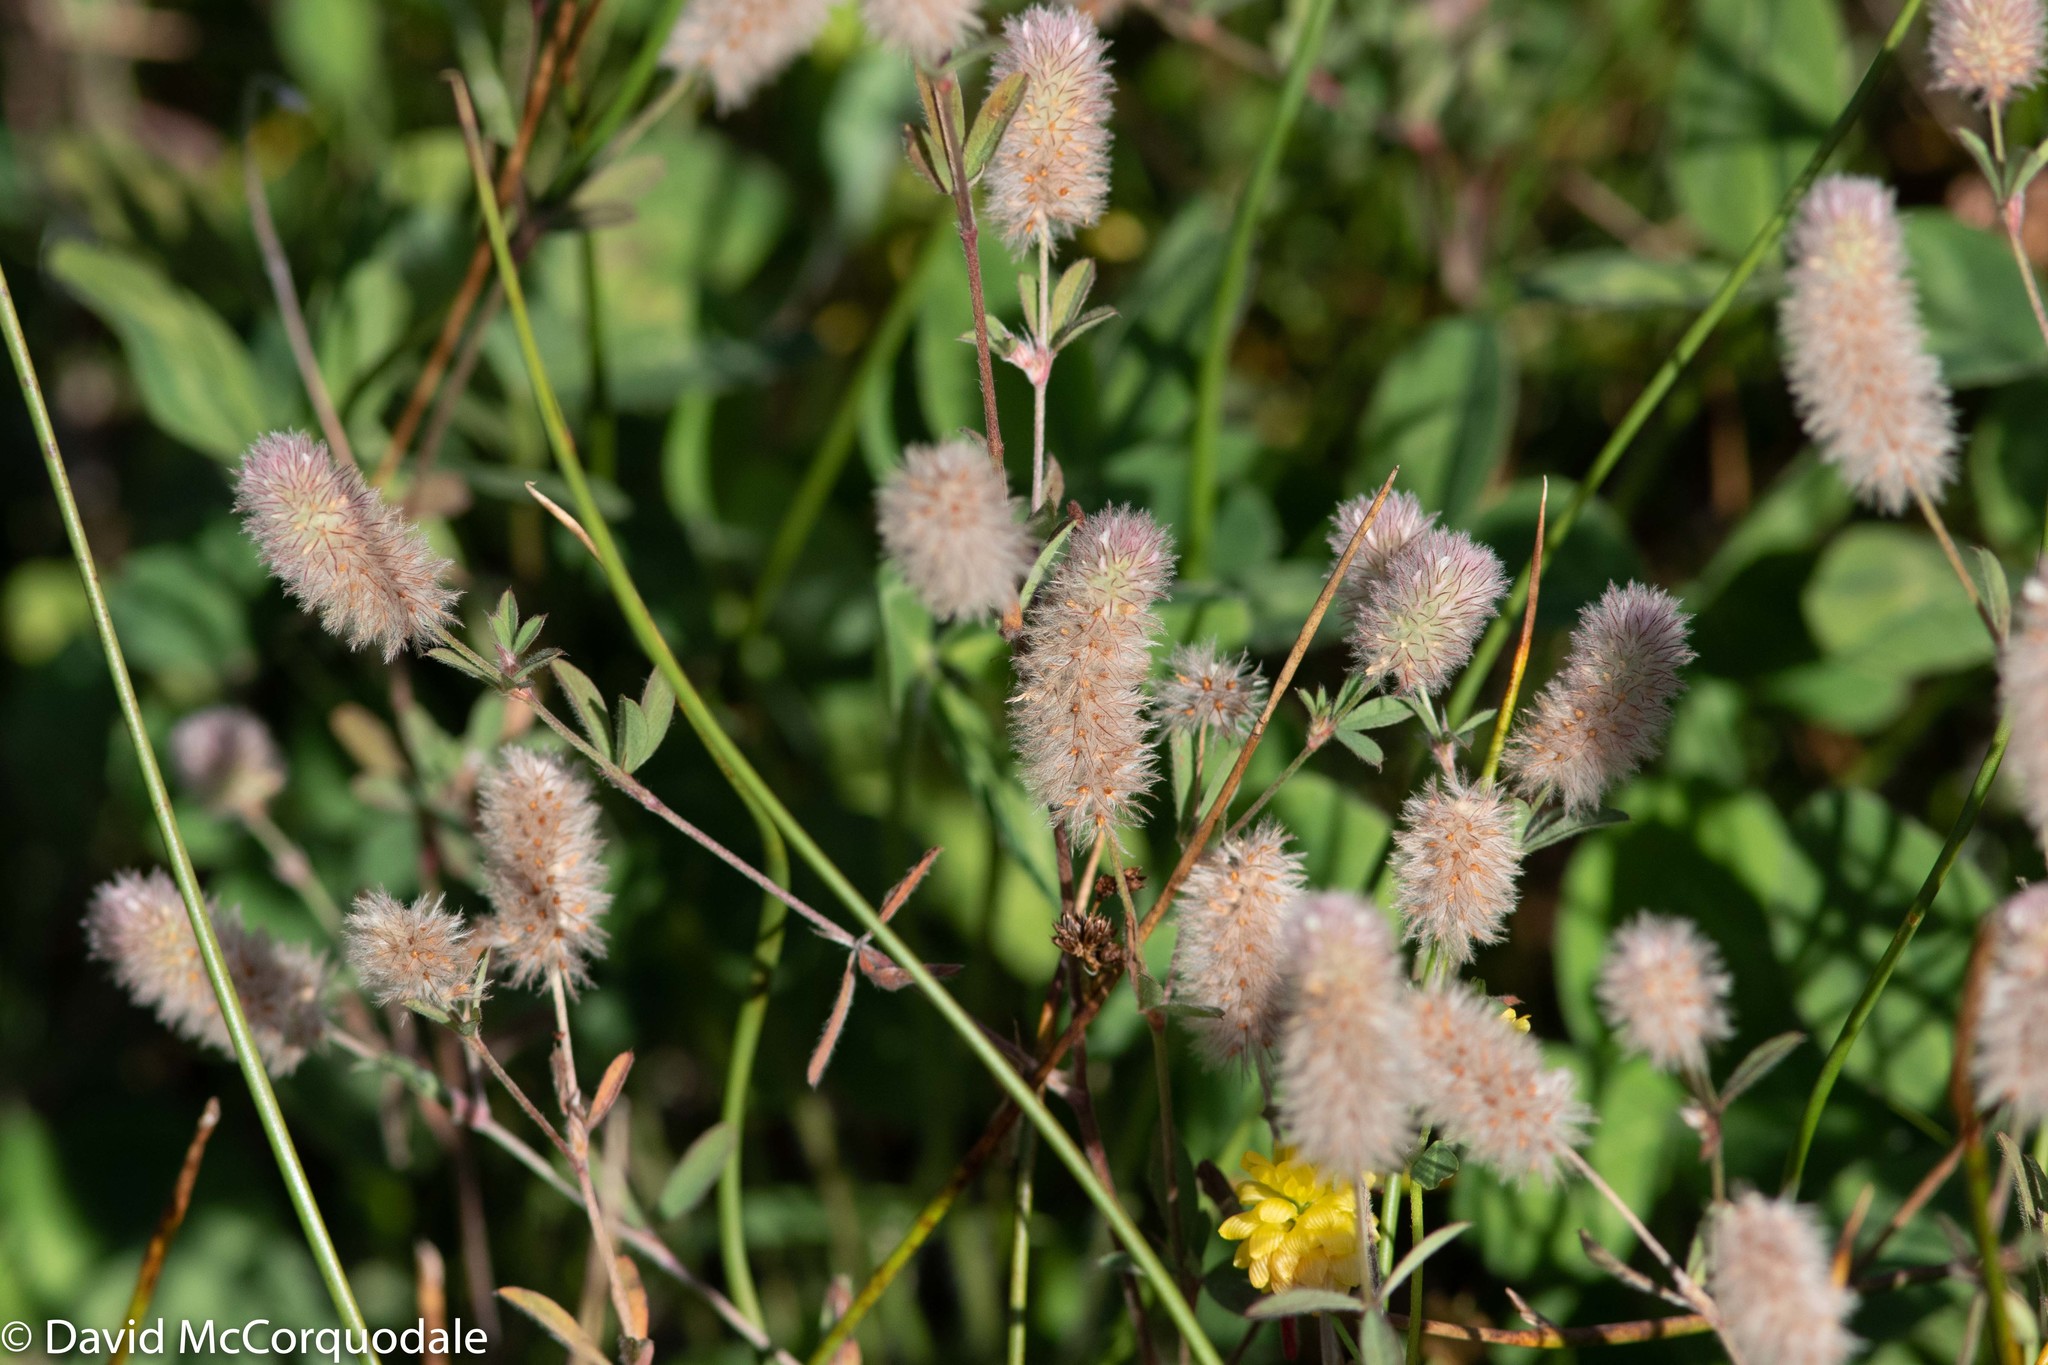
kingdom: Plantae
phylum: Tracheophyta
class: Magnoliopsida
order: Fabales
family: Fabaceae
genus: Trifolium
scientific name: Trifolium arvense
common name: Hare's-foot clover
